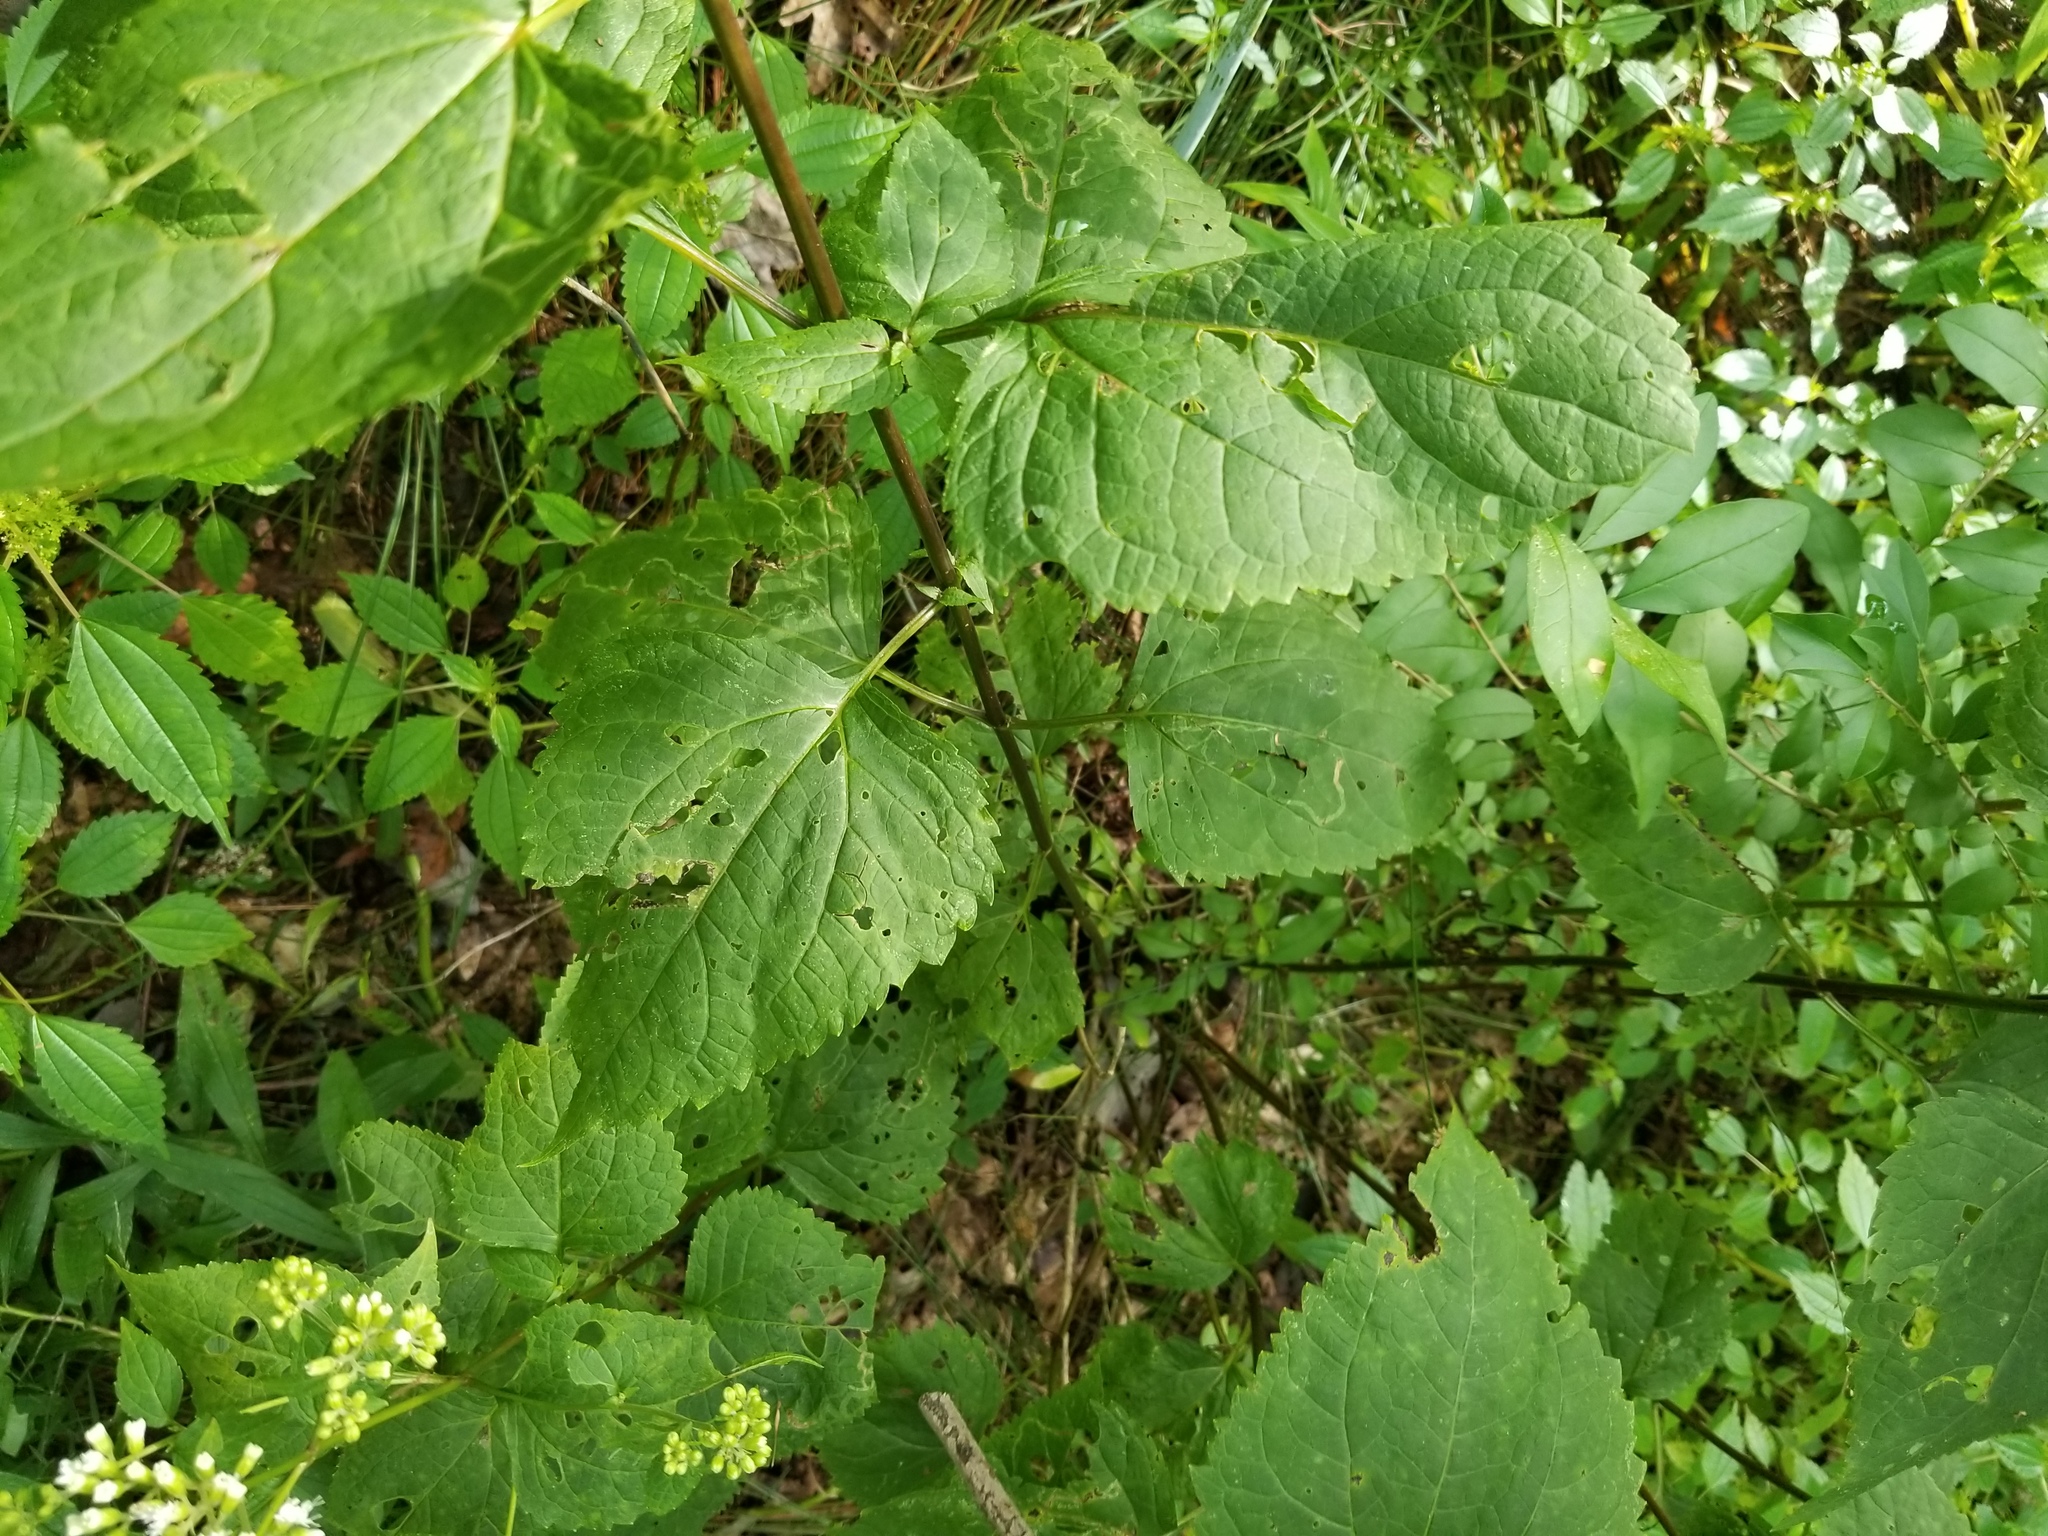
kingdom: Plantae
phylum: Tracheophyta
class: Magnoliopsida
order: Asterales
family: Asteraceae
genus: Ageratina
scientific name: Ageratina altissima
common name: White snakeroot
